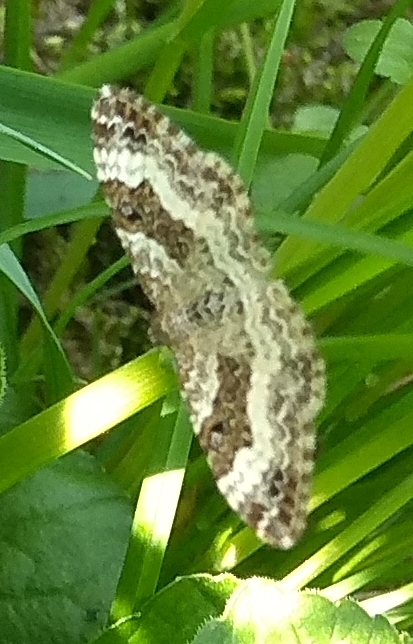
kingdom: Animalia
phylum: Arthropoda
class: Insecta
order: Lepidoptera
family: Geometridae
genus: Epirrhoe
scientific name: Epirrhoe alternata
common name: Common carpet
